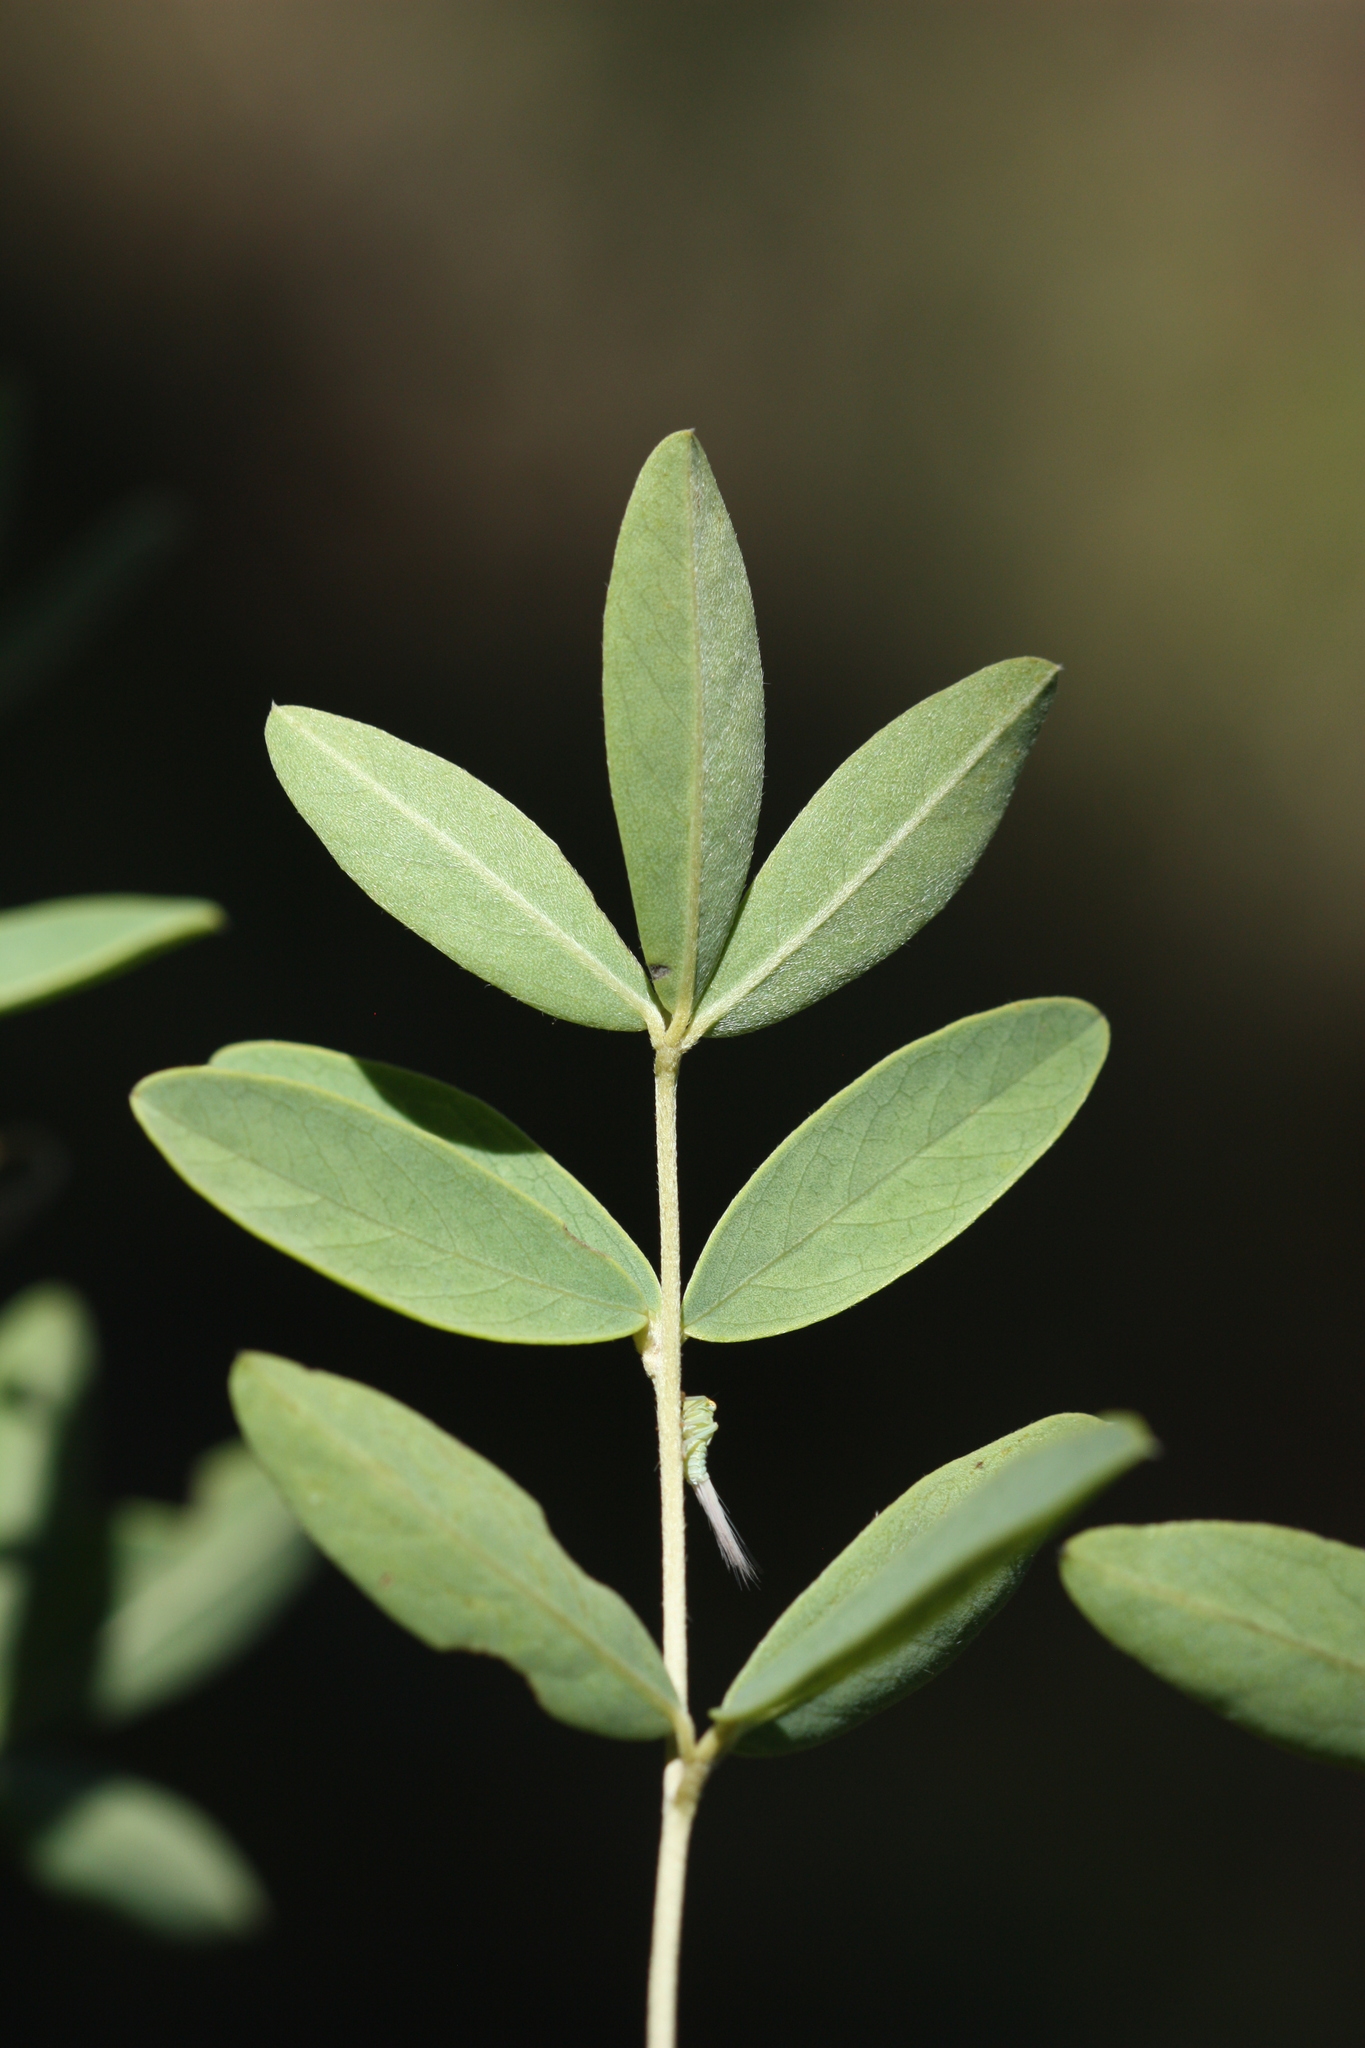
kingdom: Plantae
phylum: Tracheophyta
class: Magnoliopsida
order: Fabales
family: Fabaceae
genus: Argyrolobium
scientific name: Argyrolobium transvaalense
